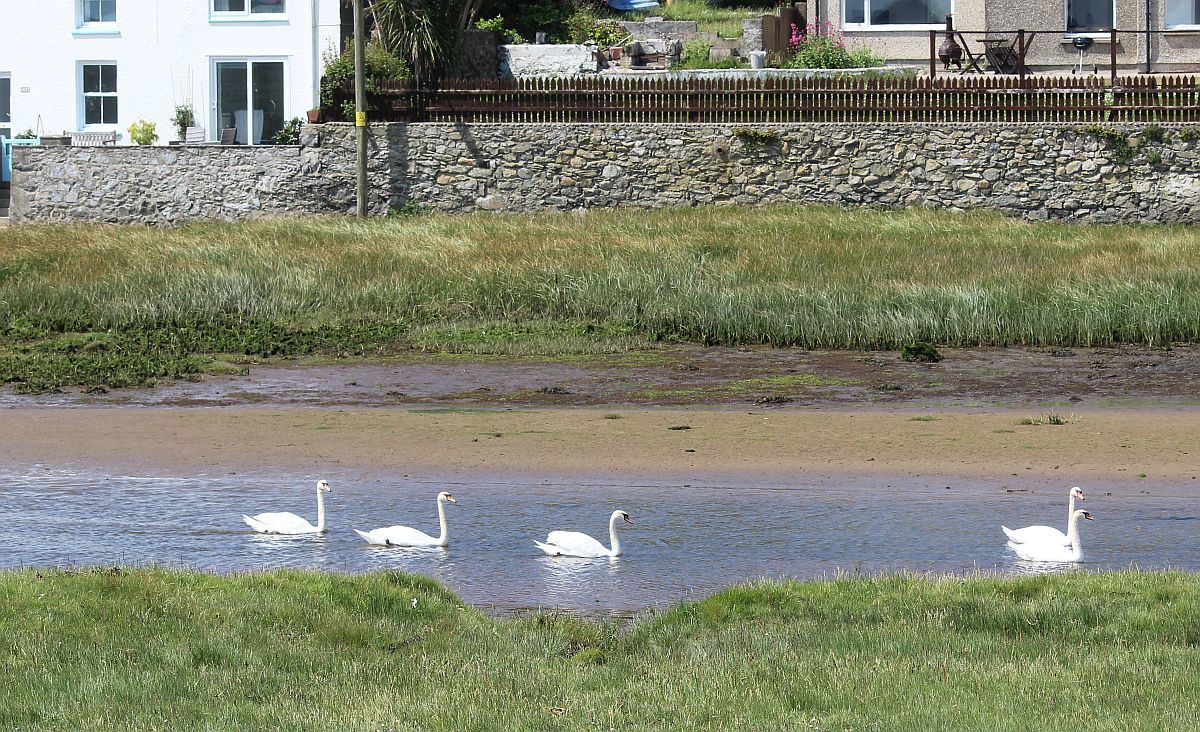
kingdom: Animalia
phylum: Chordata
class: Aves
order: Anseriformes
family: Anatidae
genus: Cygnus
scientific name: Cygnus olor
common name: Mute swan
